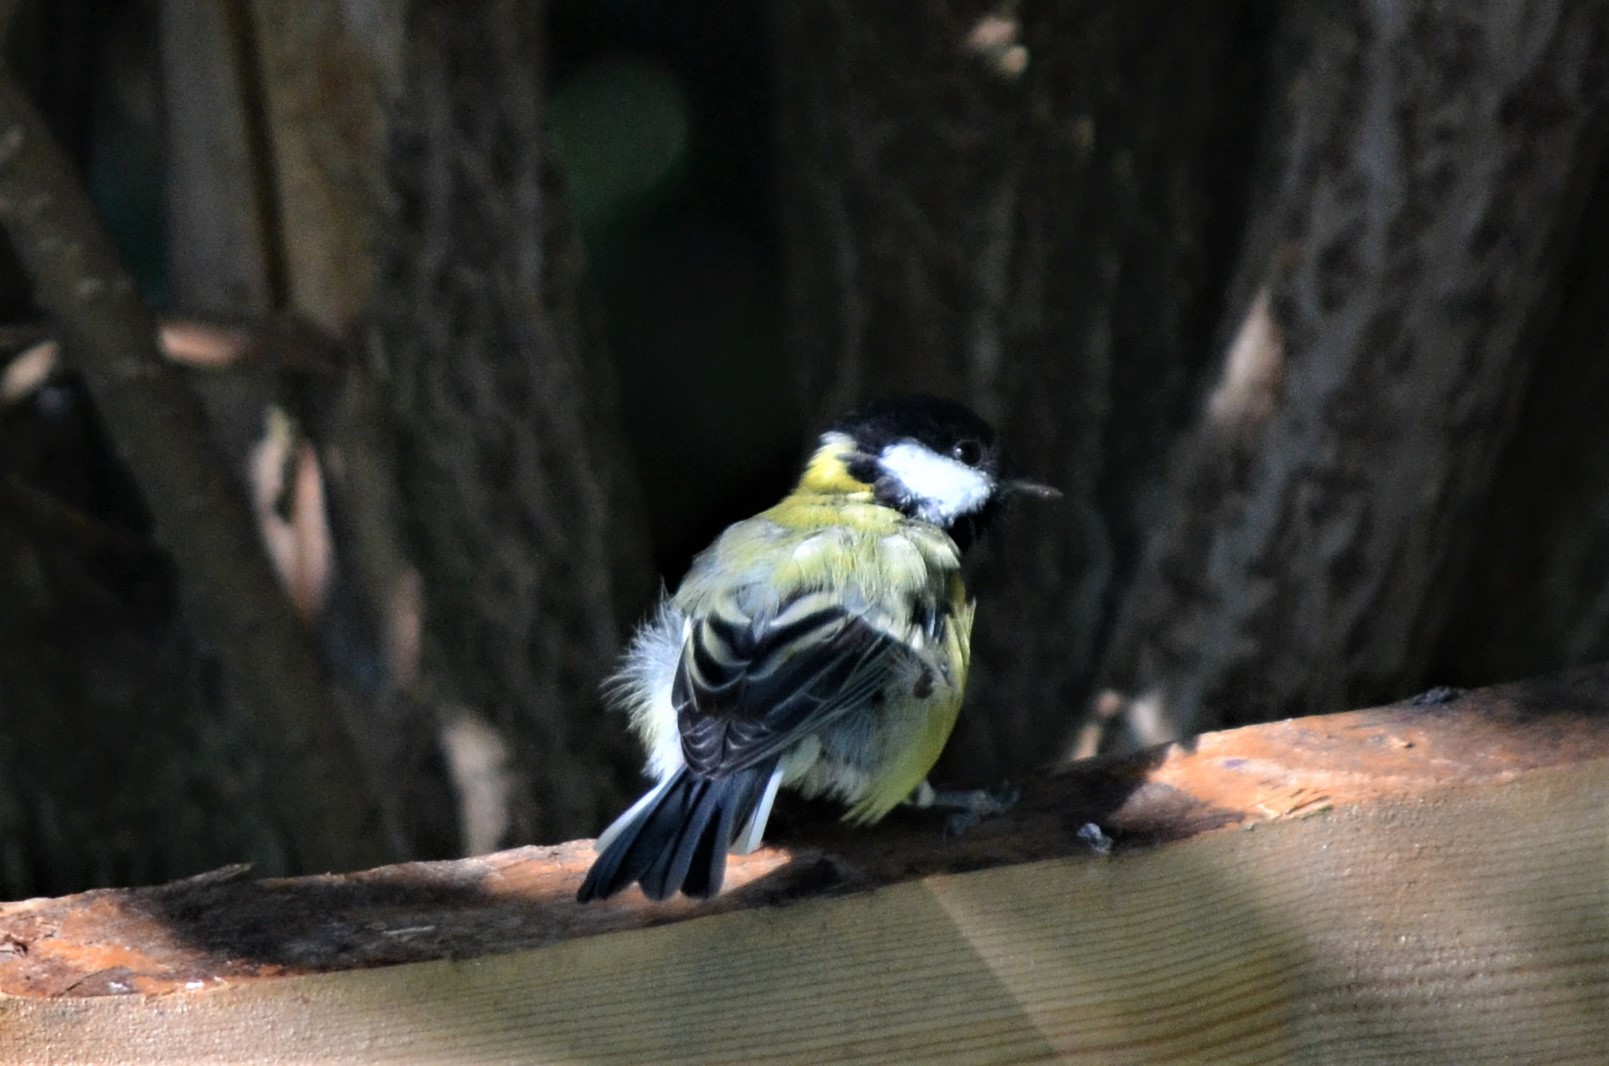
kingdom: Animalia
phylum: Chordata
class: Aves
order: Passeriformes
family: Paridae
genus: Parus
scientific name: Parus major
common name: Great tit
